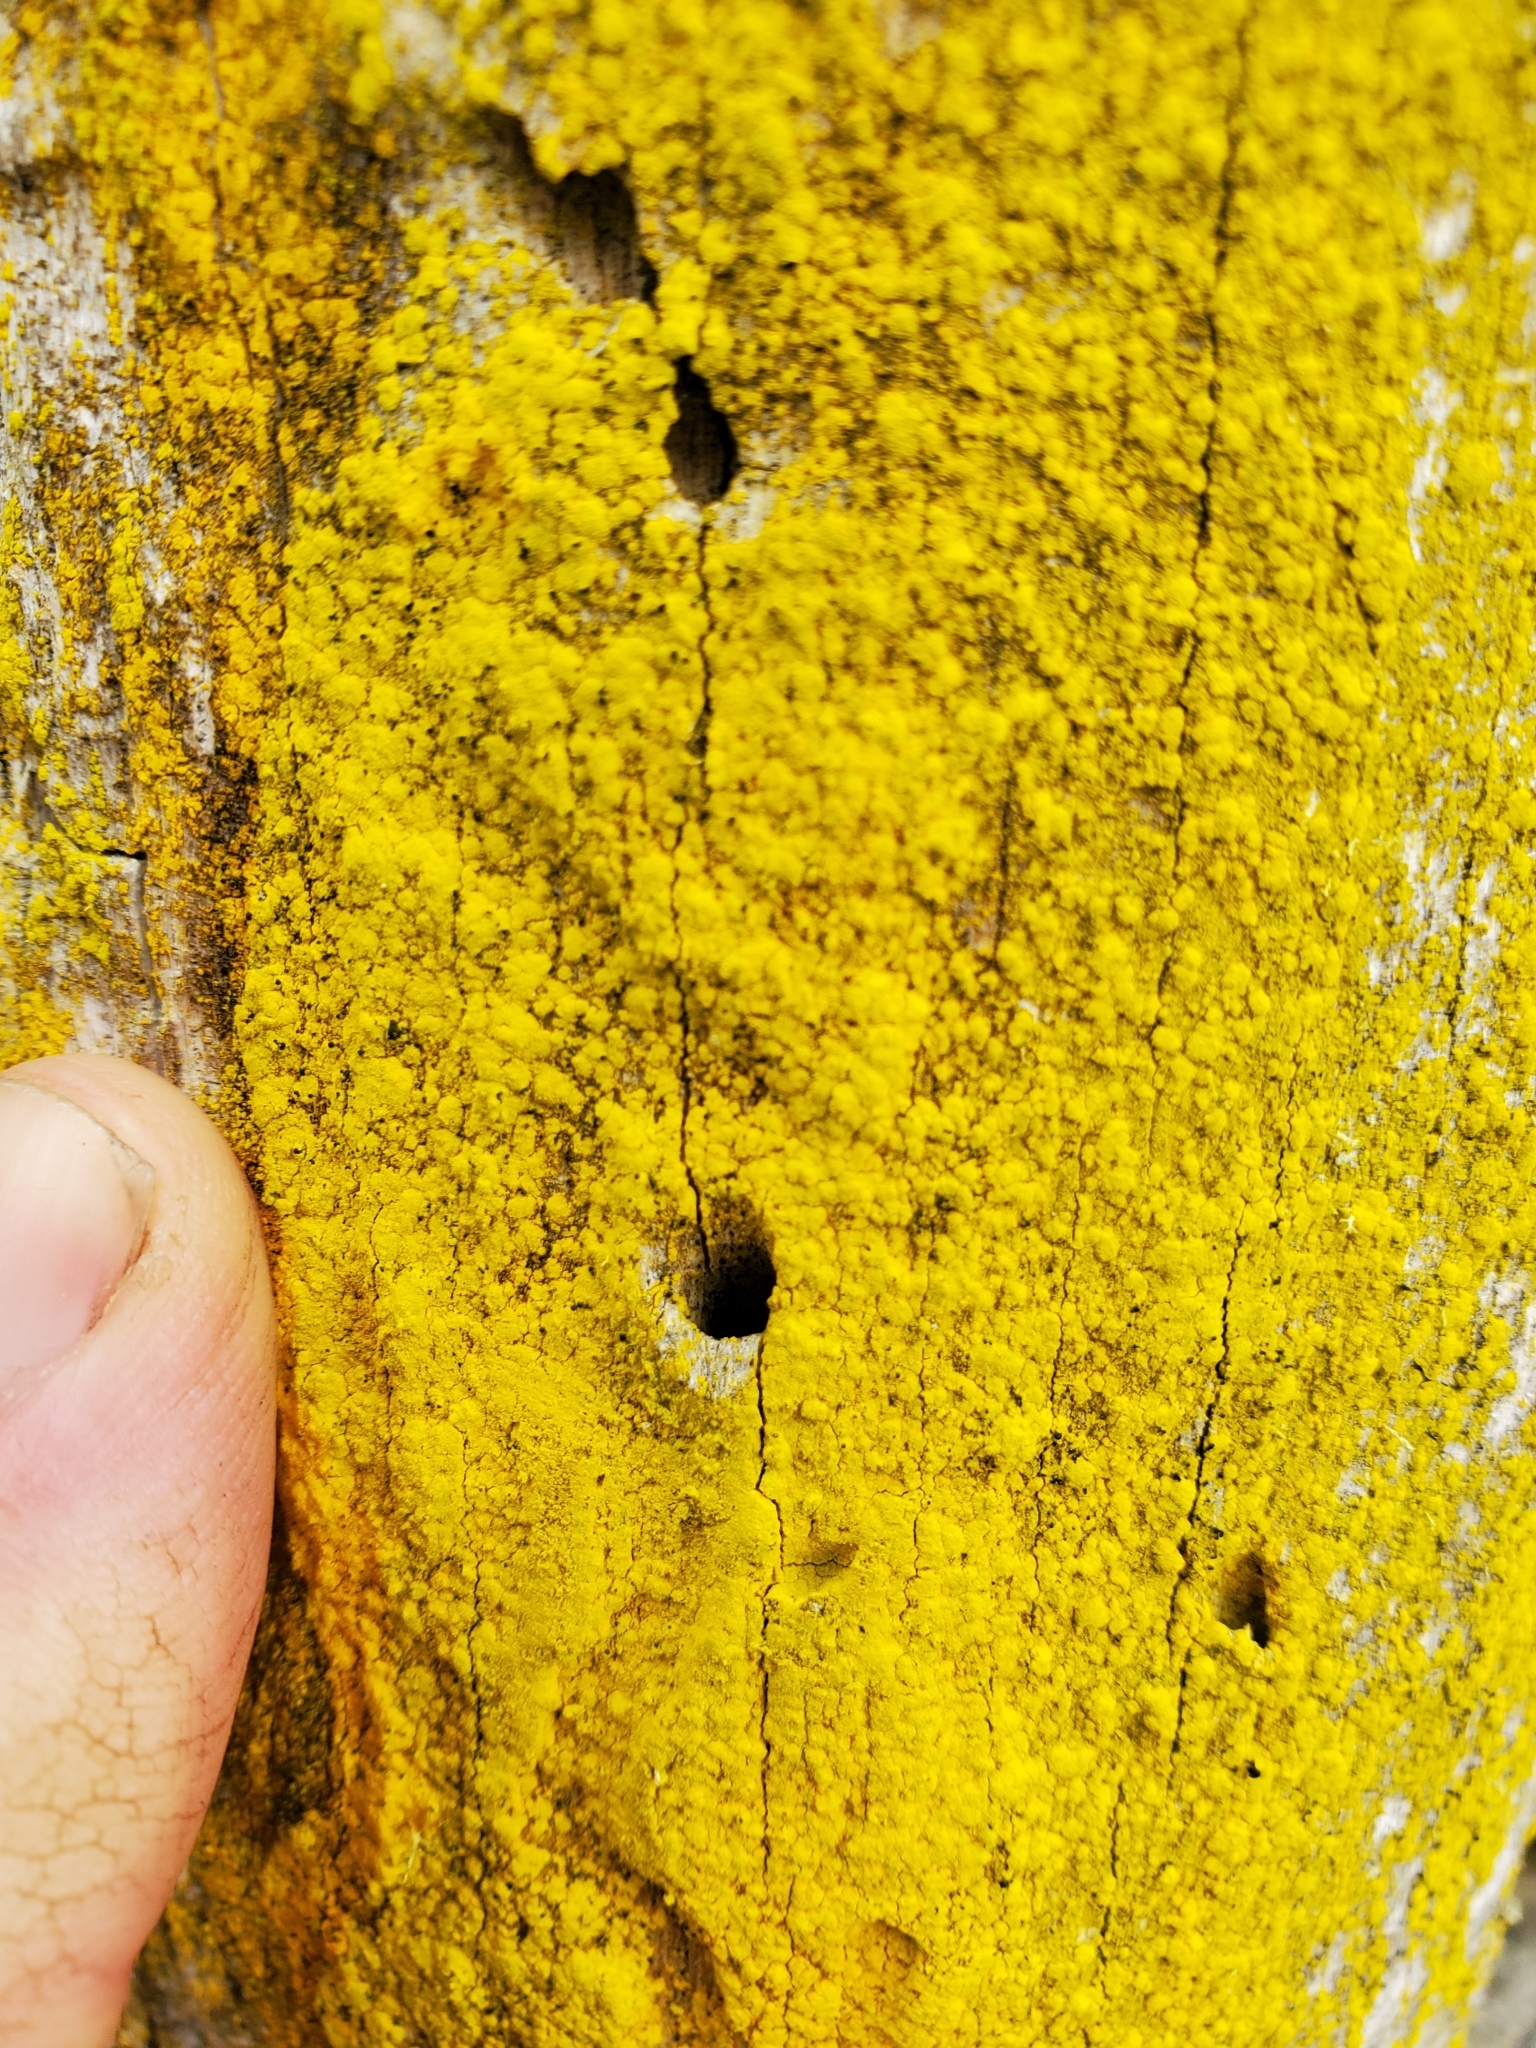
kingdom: Fungi
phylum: Ascomycota
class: Arthoniomycetes
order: Arthoniales
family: Chrysotrichaceae
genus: Chrysothrix
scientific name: Chrysothrix candelaris
